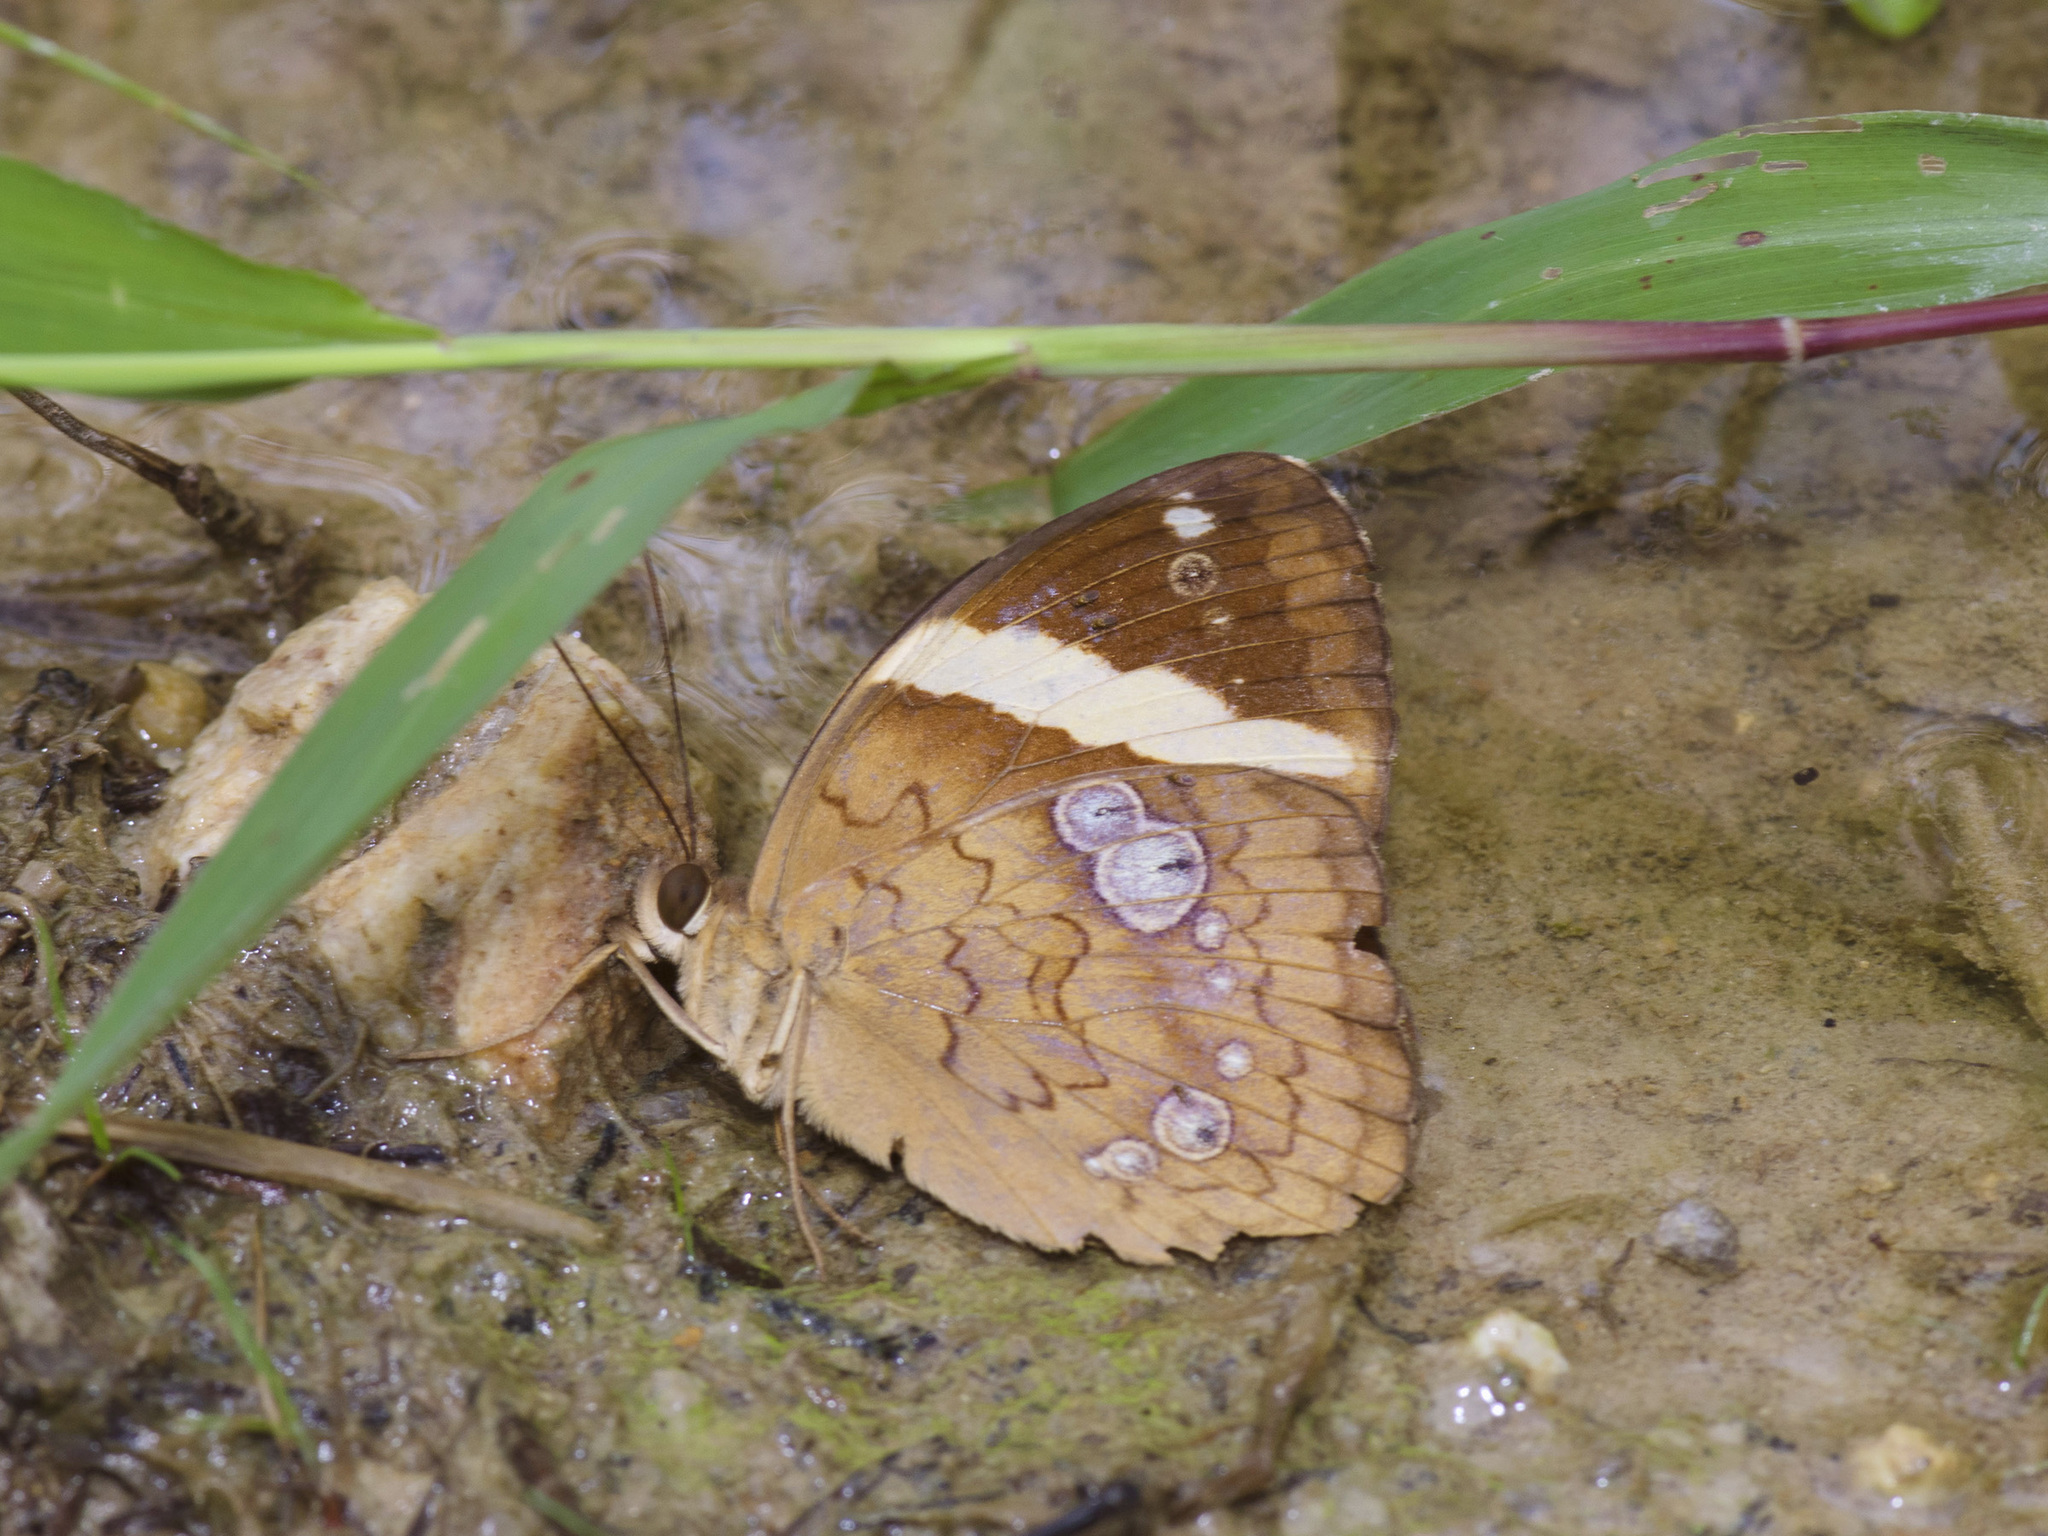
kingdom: Animalia
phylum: Arthropoda
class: Insecta
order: Lepidoptera
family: Nymphalidae
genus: Xanthotaenia
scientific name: Xanthotaenia busiris
